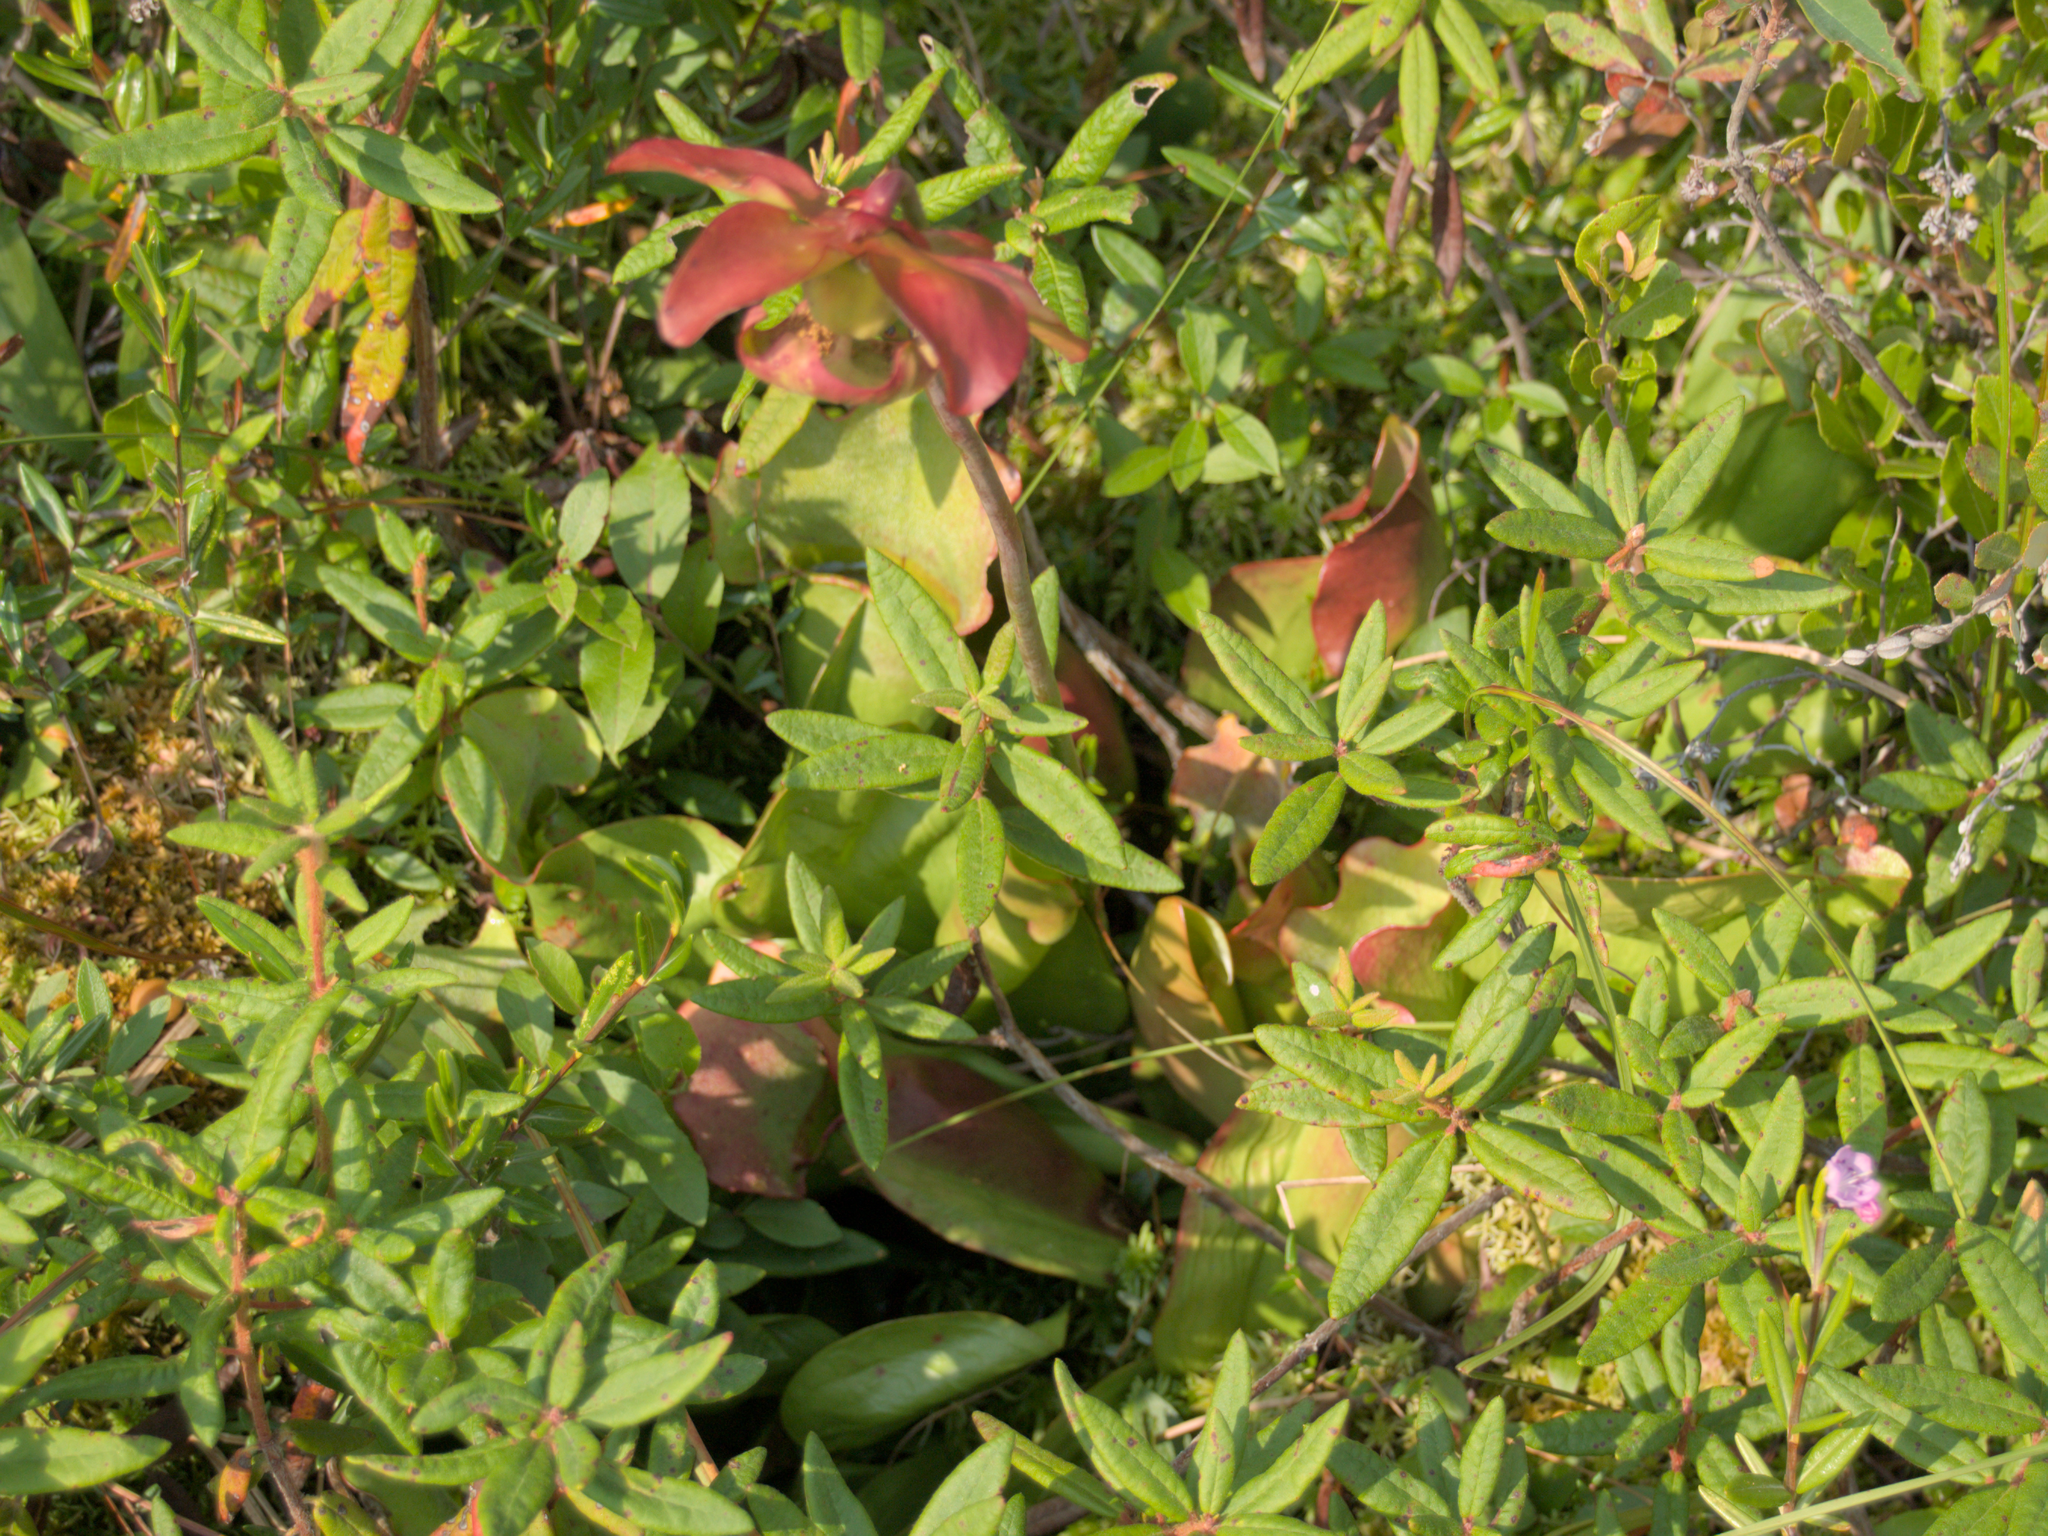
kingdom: Plantae
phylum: Tracheophyta
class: Magnoliopsida
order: Ericales
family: Sarraceniaceae
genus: Sarracenia
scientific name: Sarracenia purpurea
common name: Pitcherplant
